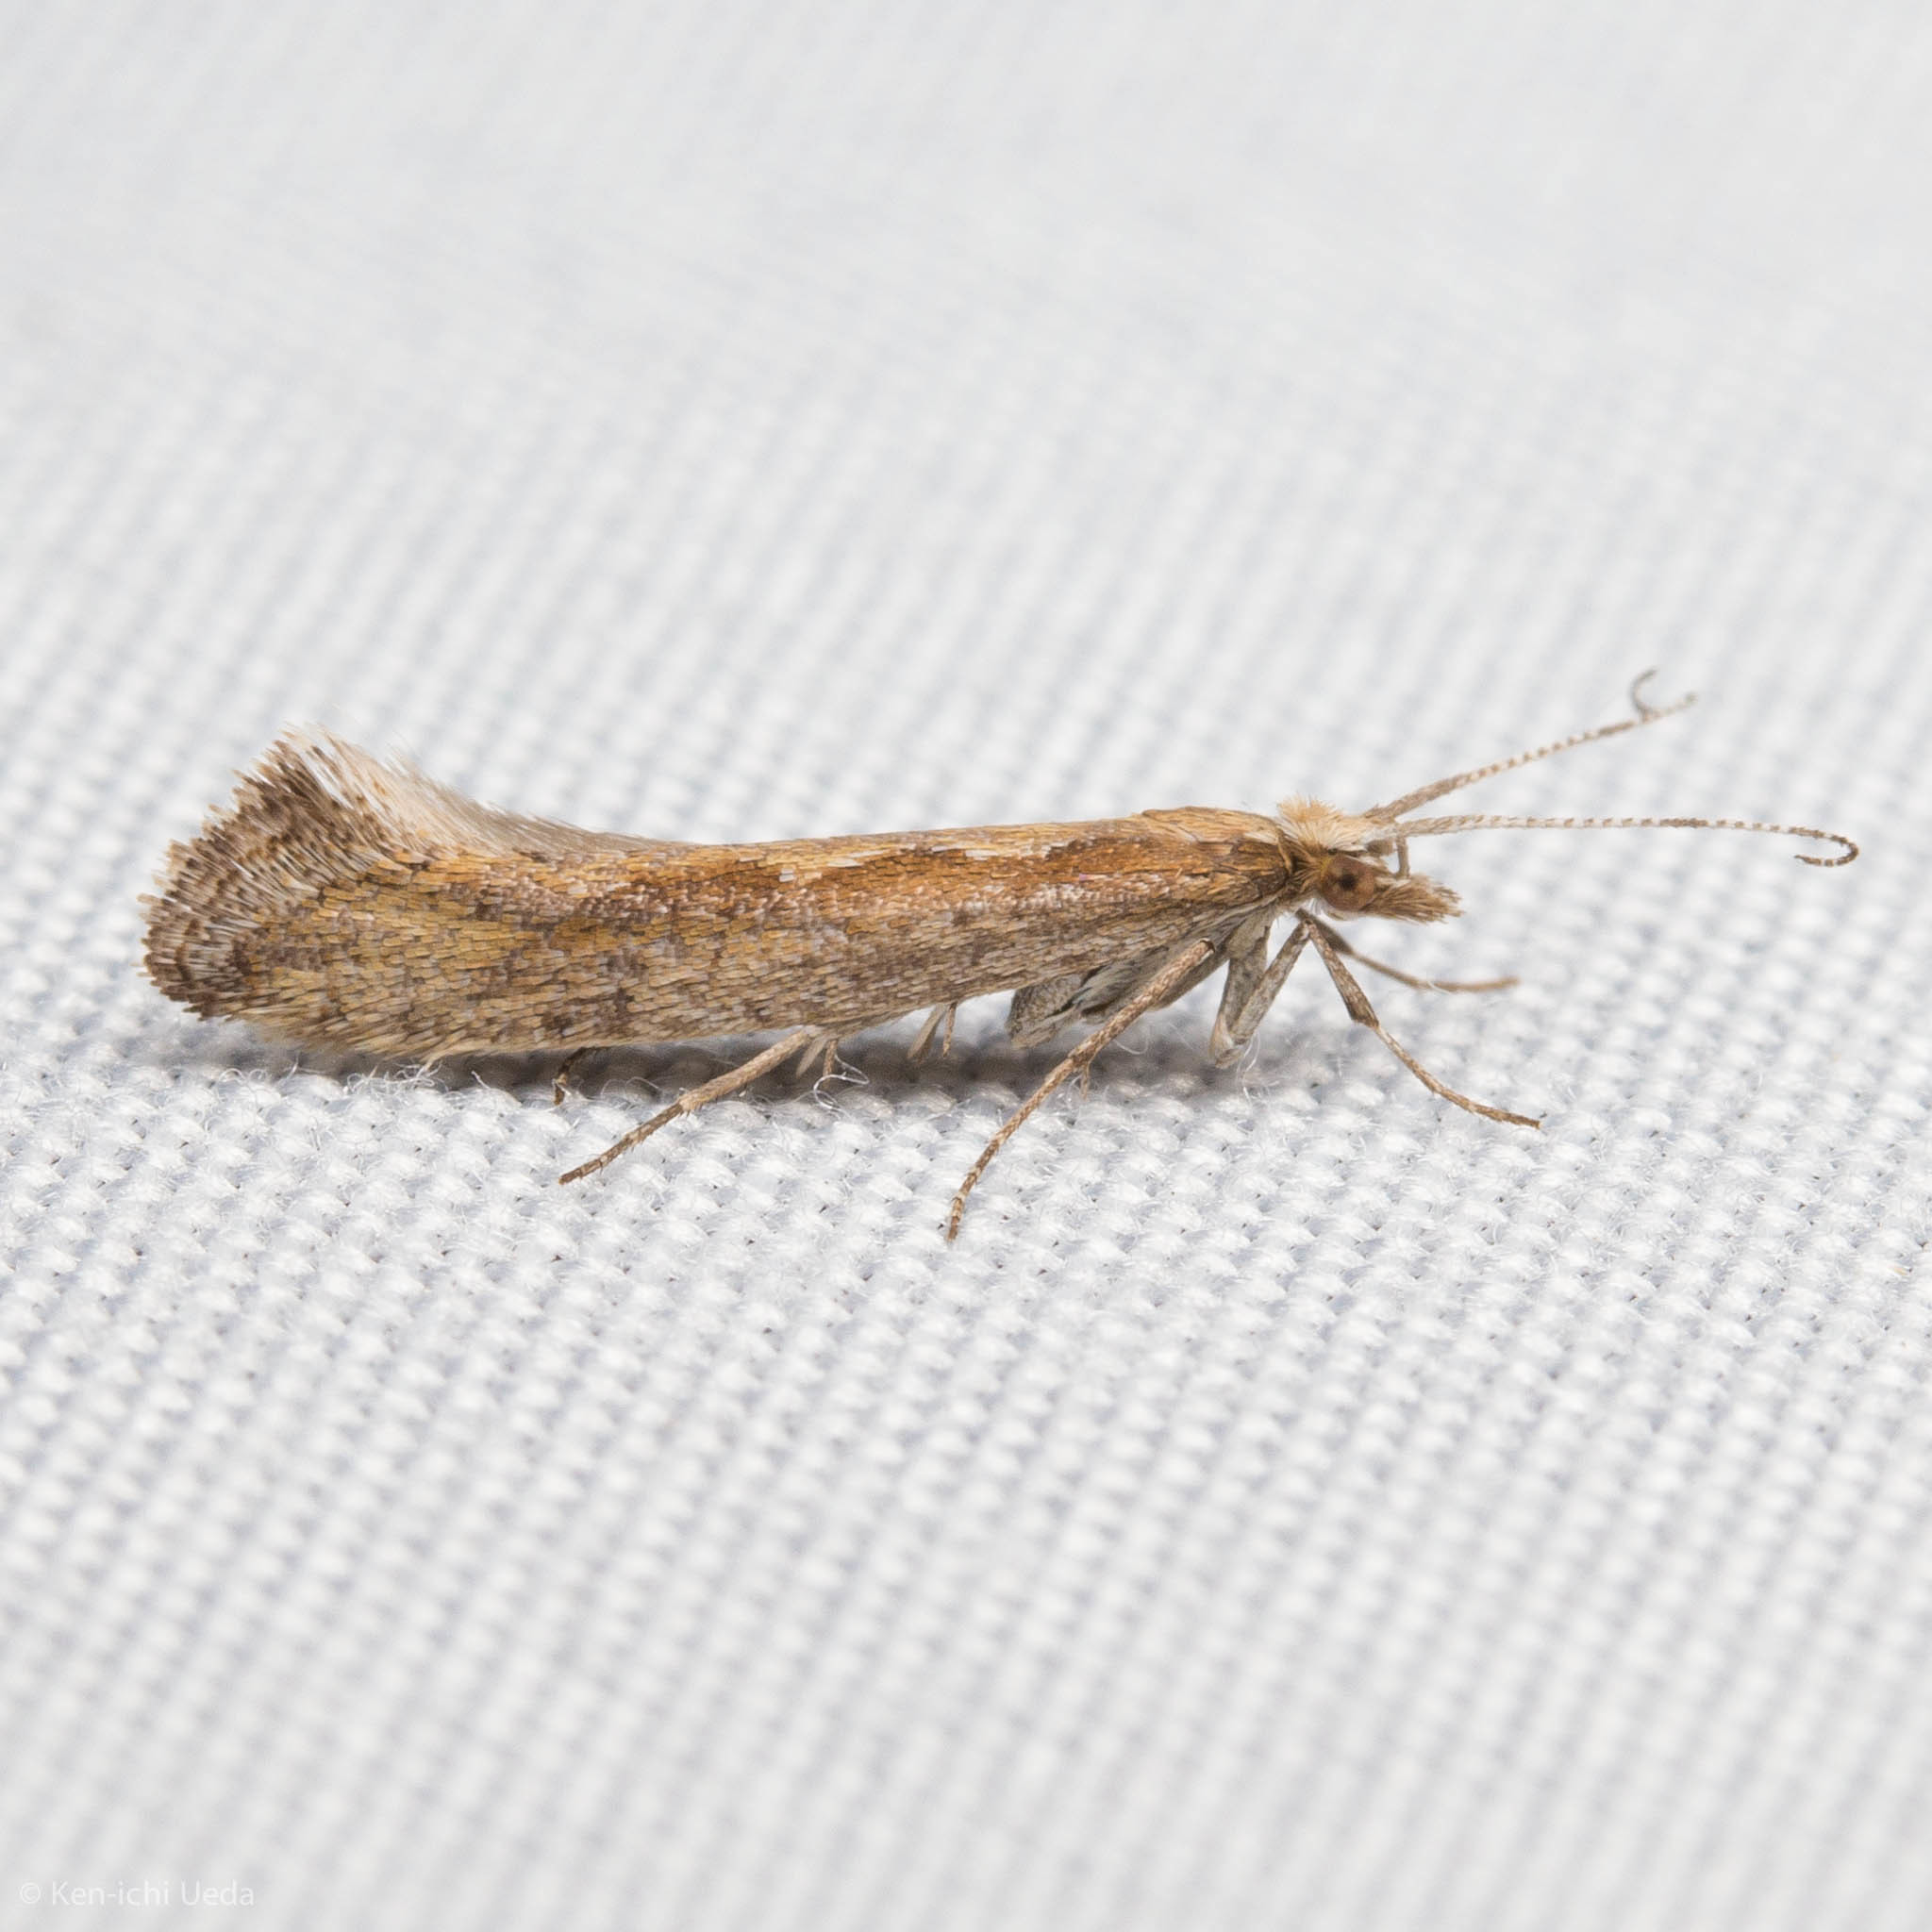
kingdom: Animalia
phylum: Arthropoda
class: Insecta
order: Lepidoptera
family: Plutellidae
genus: Plutella
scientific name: Plutella xylostella
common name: Diamond-back moth
